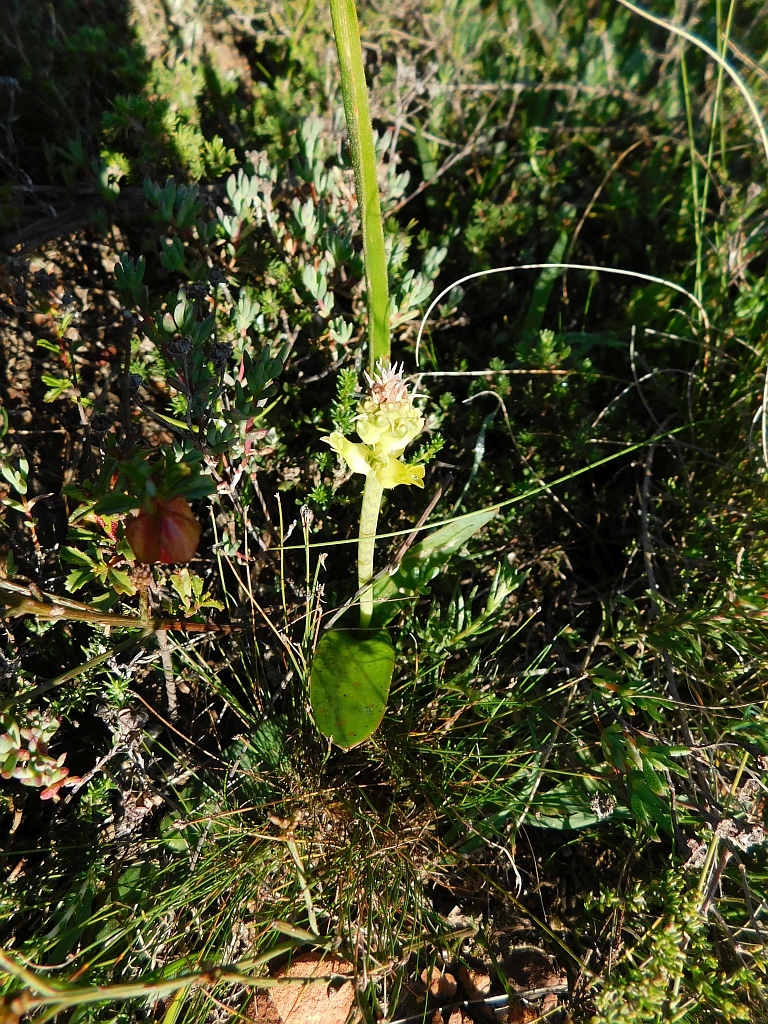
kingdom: Plantae
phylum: Tracheophyta
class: Liliopsida
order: Asparagales
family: Asparagaceae
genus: Lachenalia
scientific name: Lachenalia orchioides
